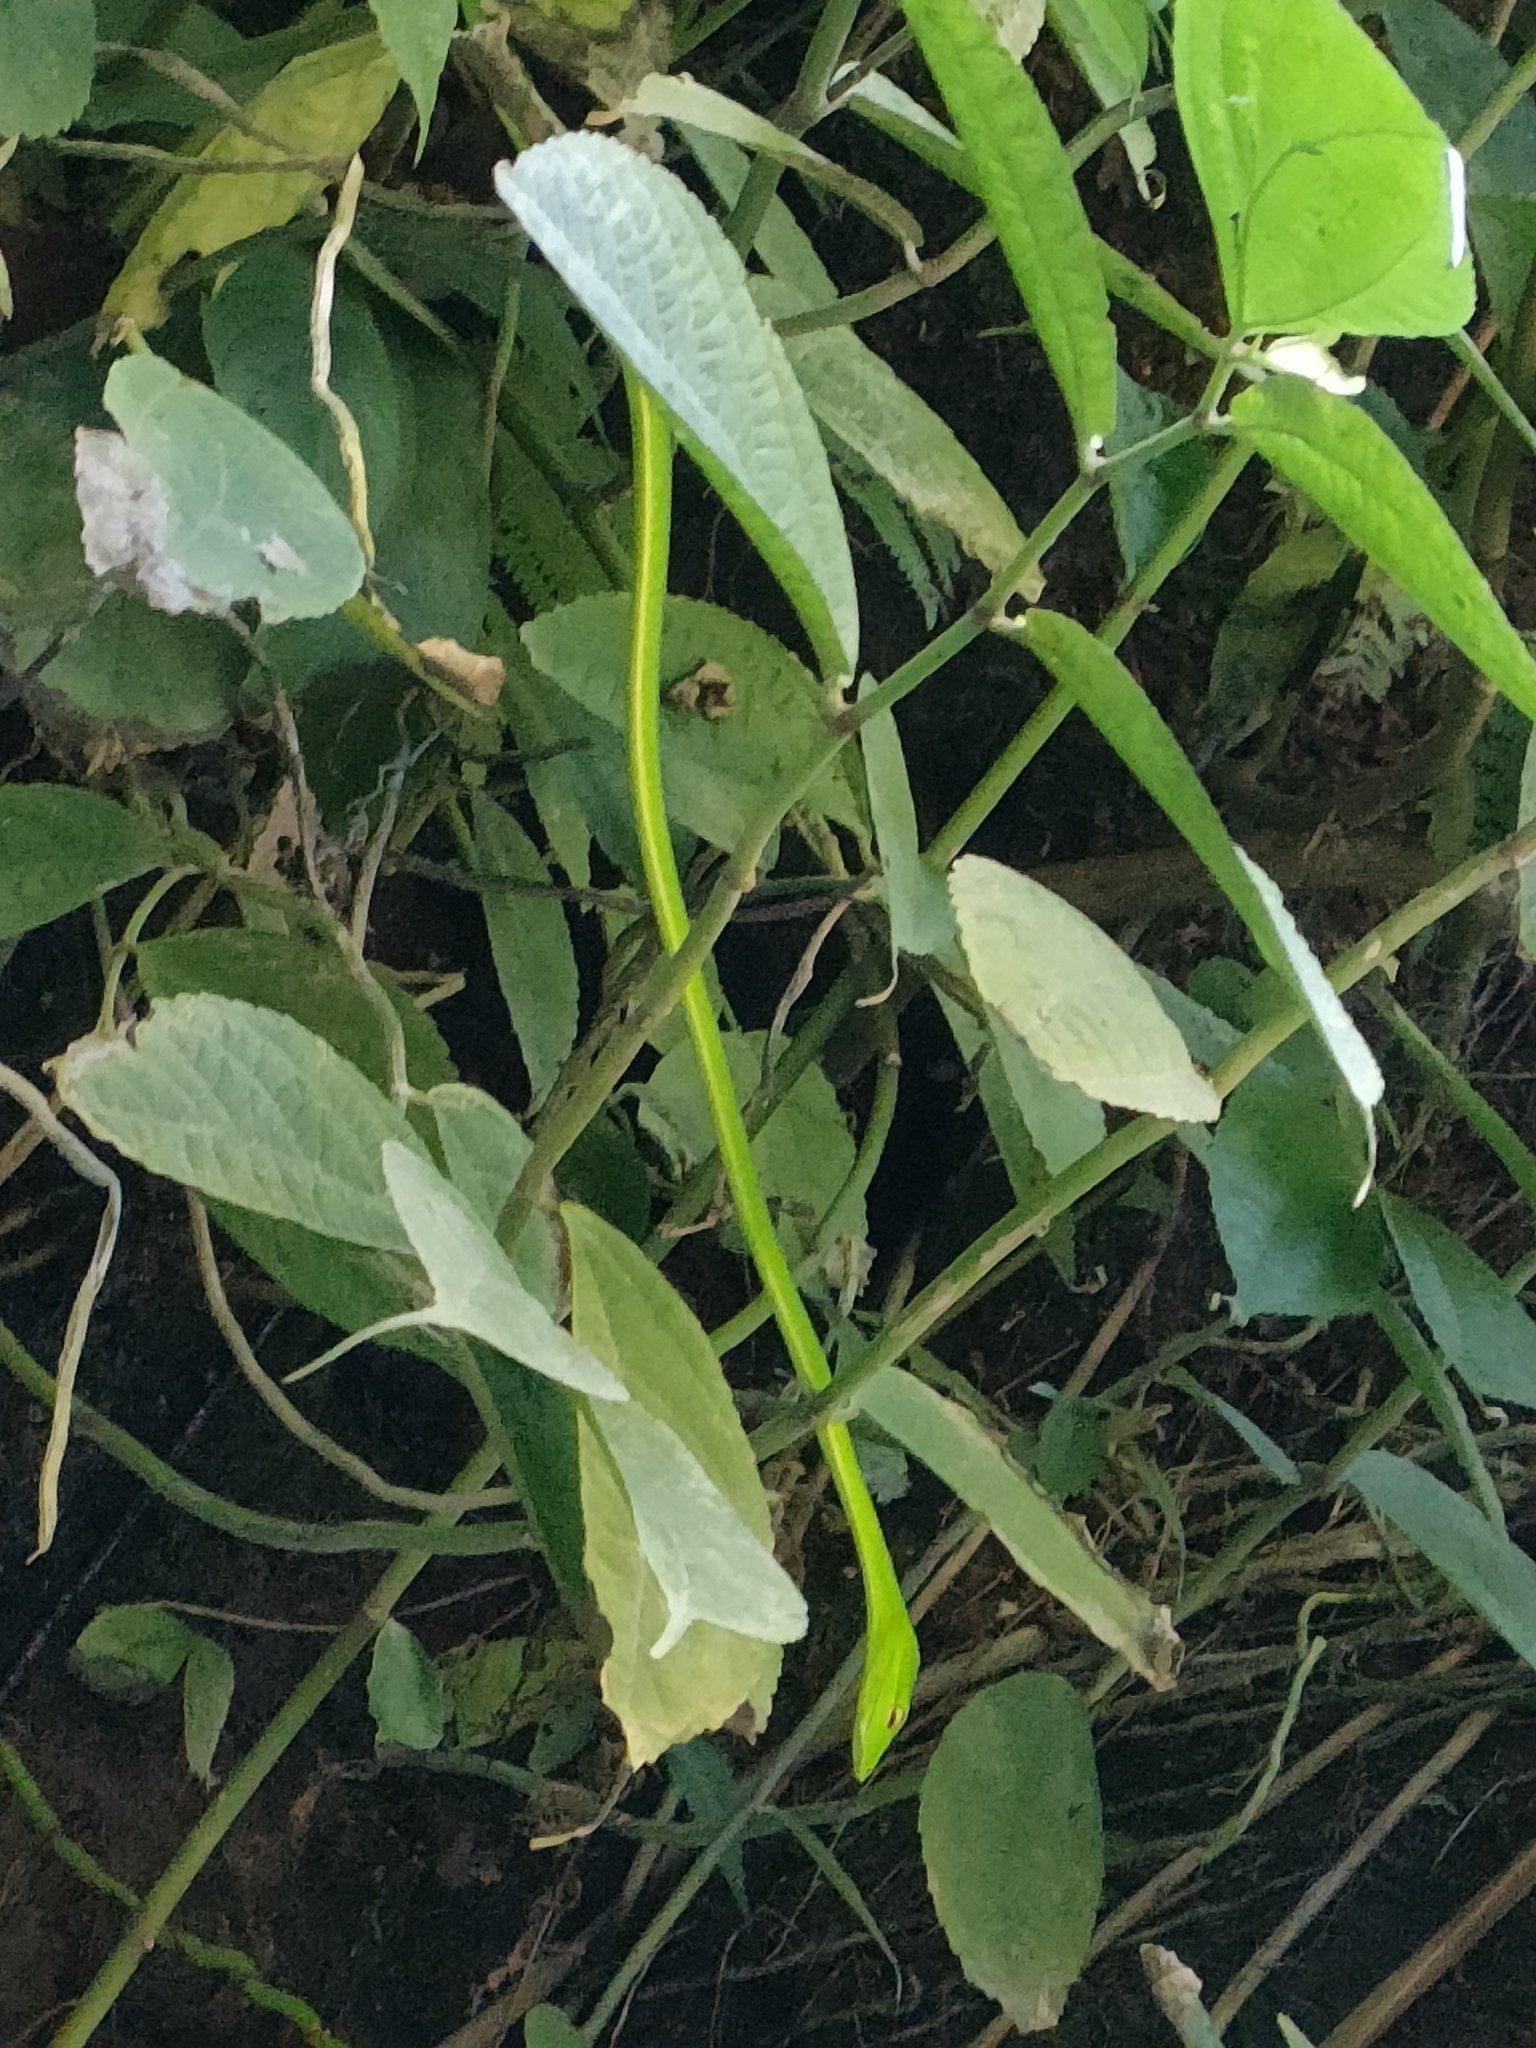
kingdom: Animalia
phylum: Chordata
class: Squamata
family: Colubridae
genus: Ahaetulla
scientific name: Ahaetulla prasina
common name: Oriental whip snake
